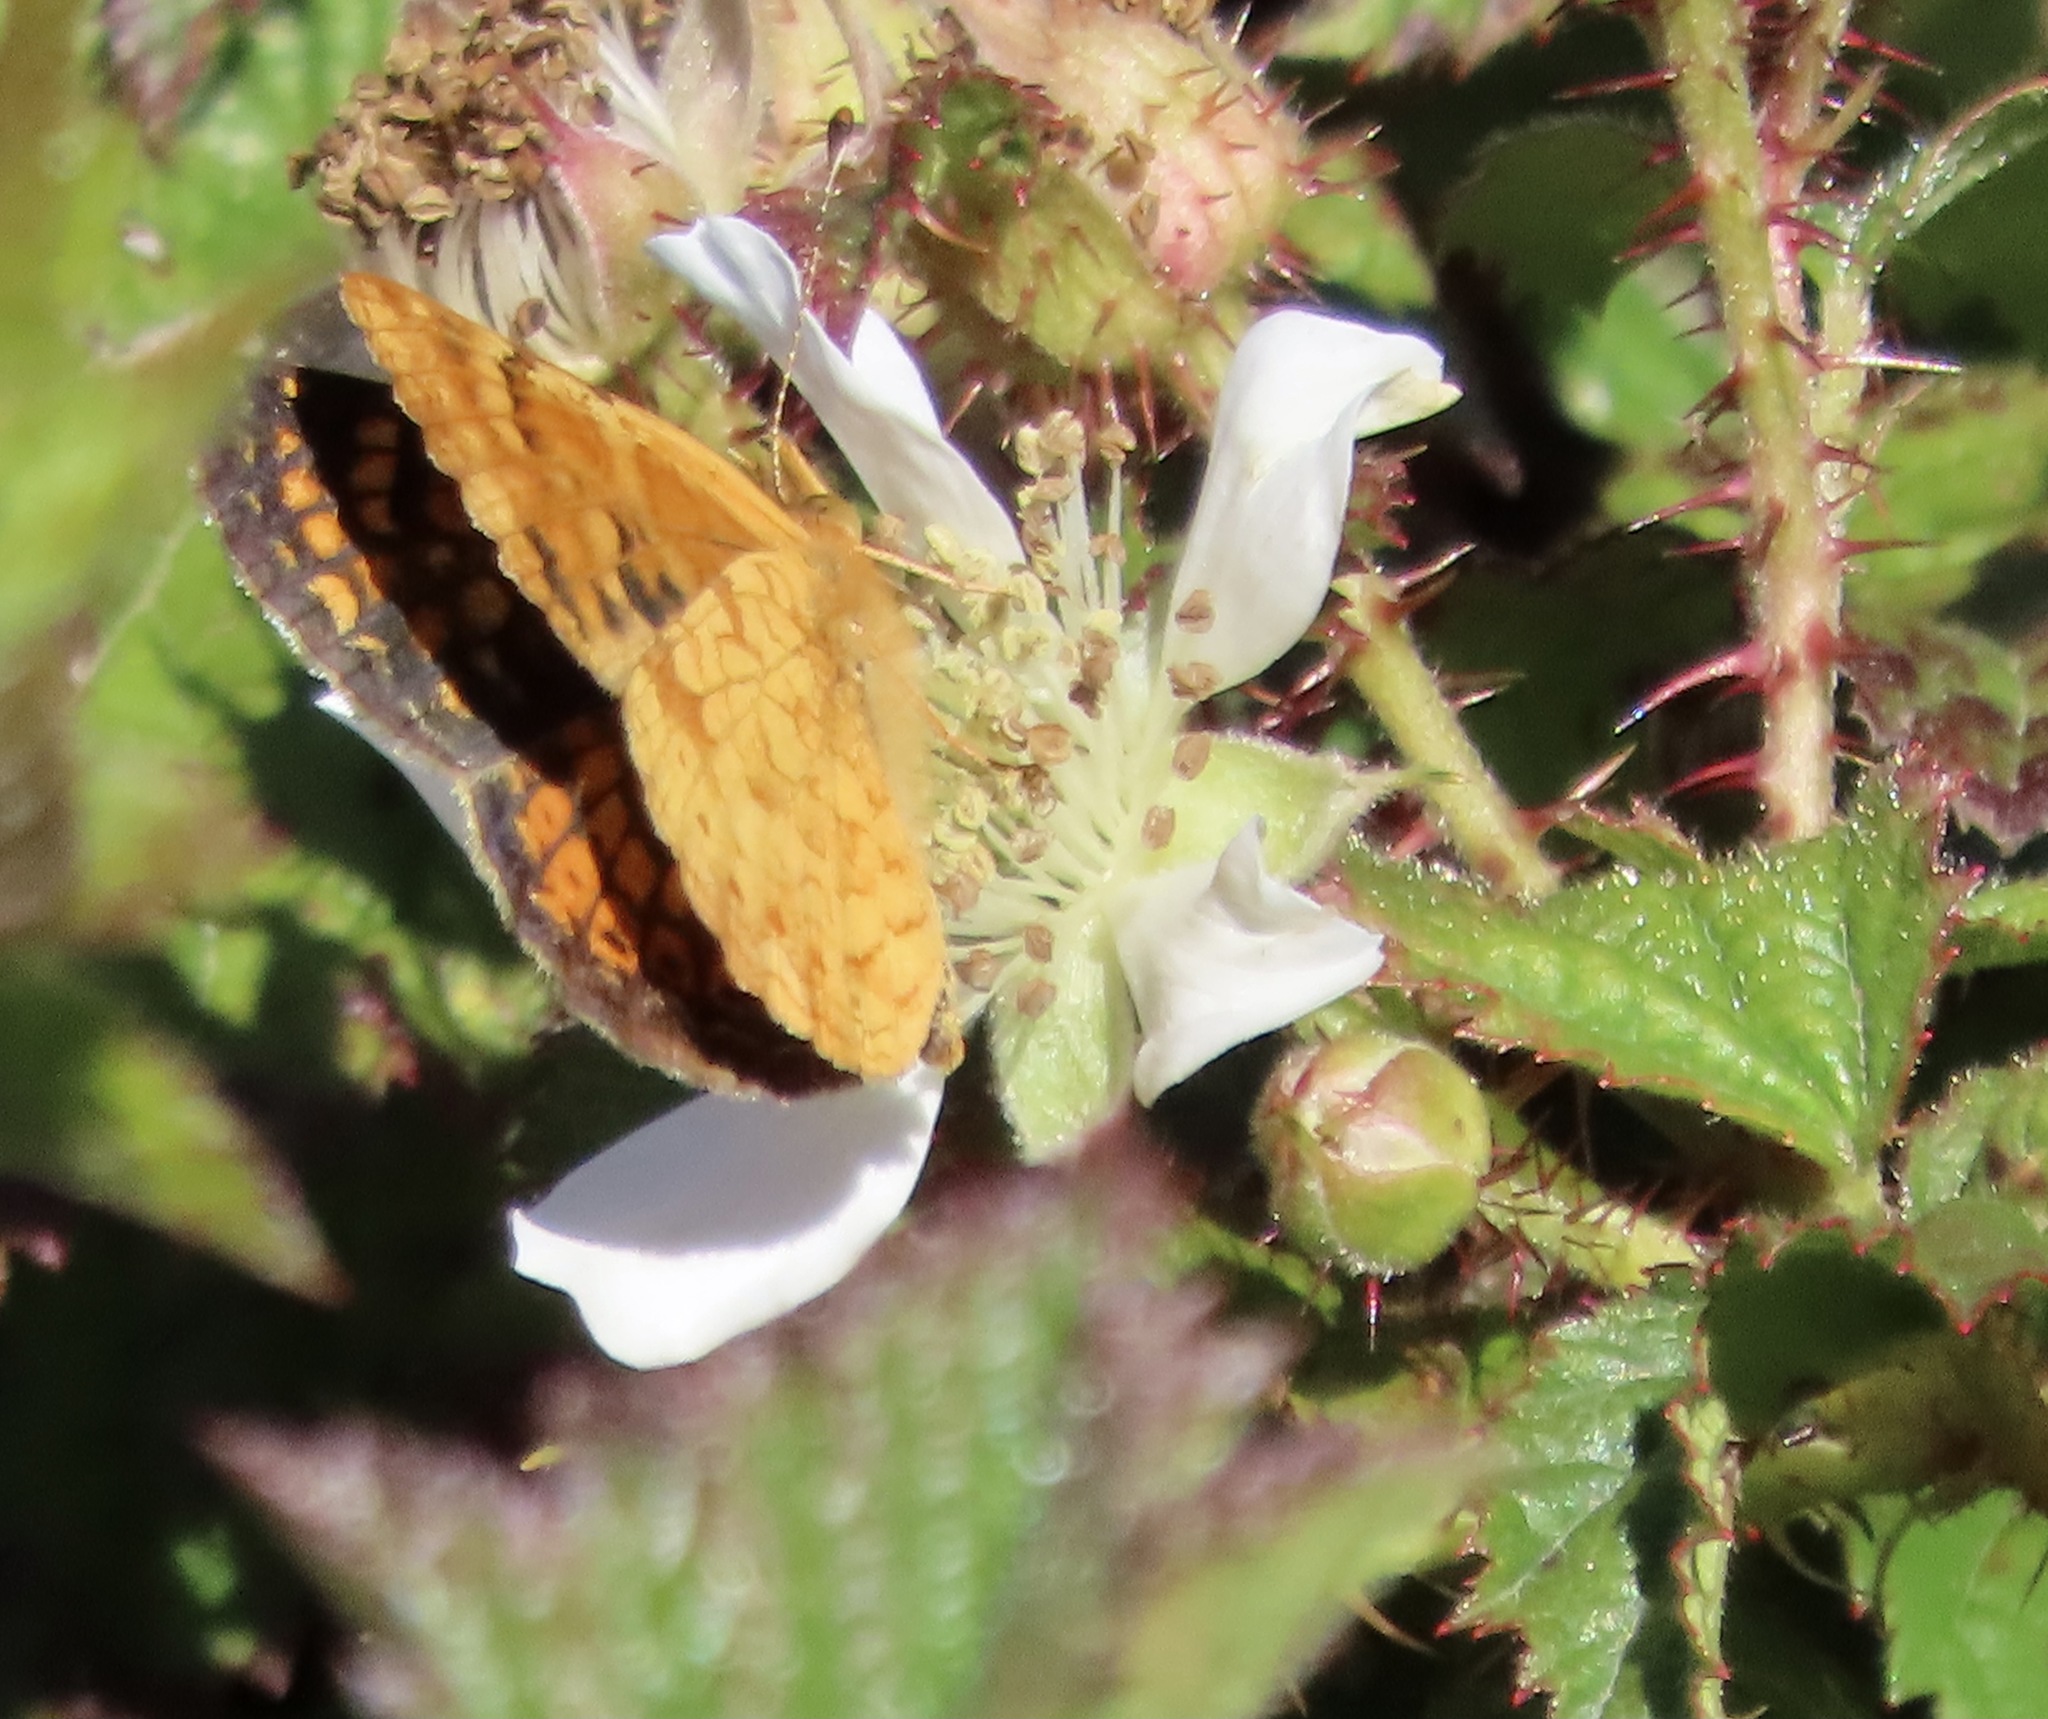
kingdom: Animalia
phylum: Arthropoda
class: Insecta
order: Lepidoptera
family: Nymphalidae
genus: Phyciodes
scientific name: Phyciodes tharos
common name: Pearl crescent
